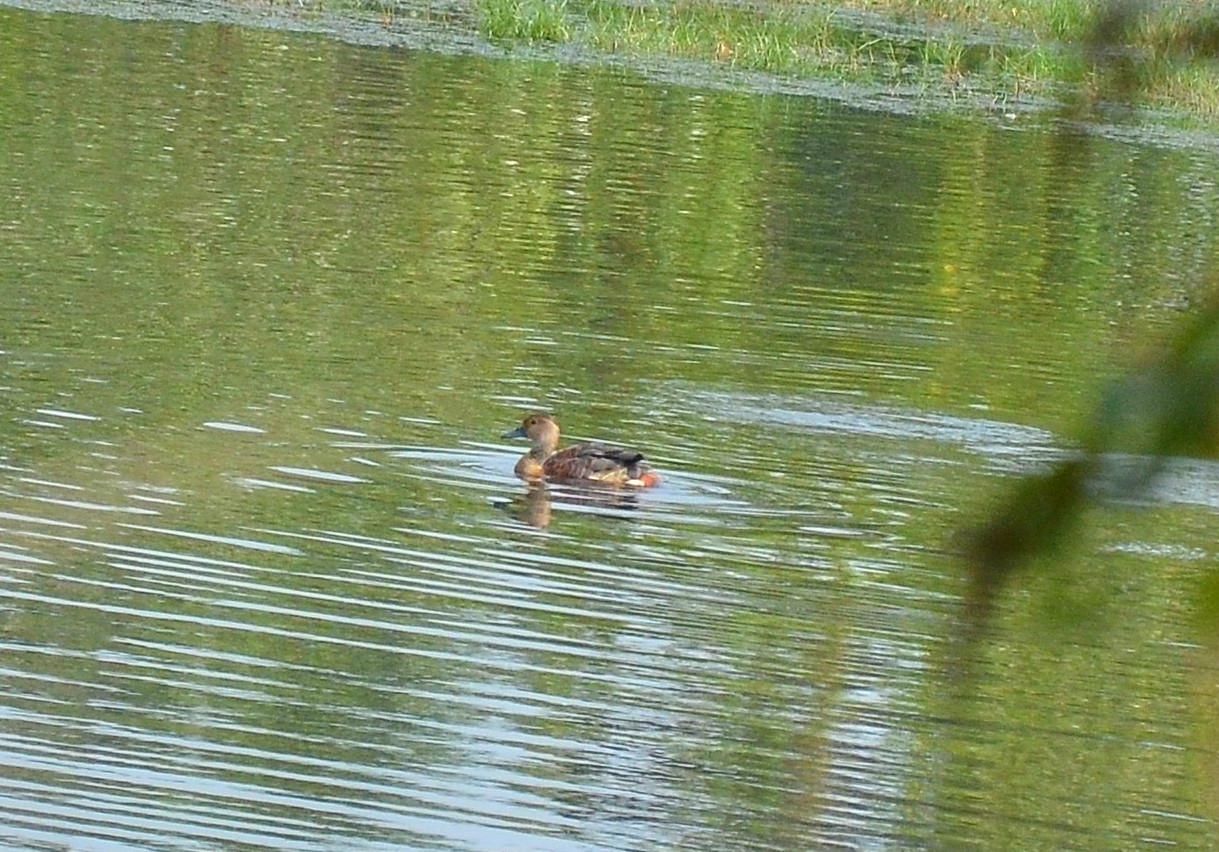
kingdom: Animalia
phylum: Chordata
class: Aves
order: Anseriformes
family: Anatidae
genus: Dendrocygna
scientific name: Dendrocygna javanica
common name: Lesser whistling-duck
